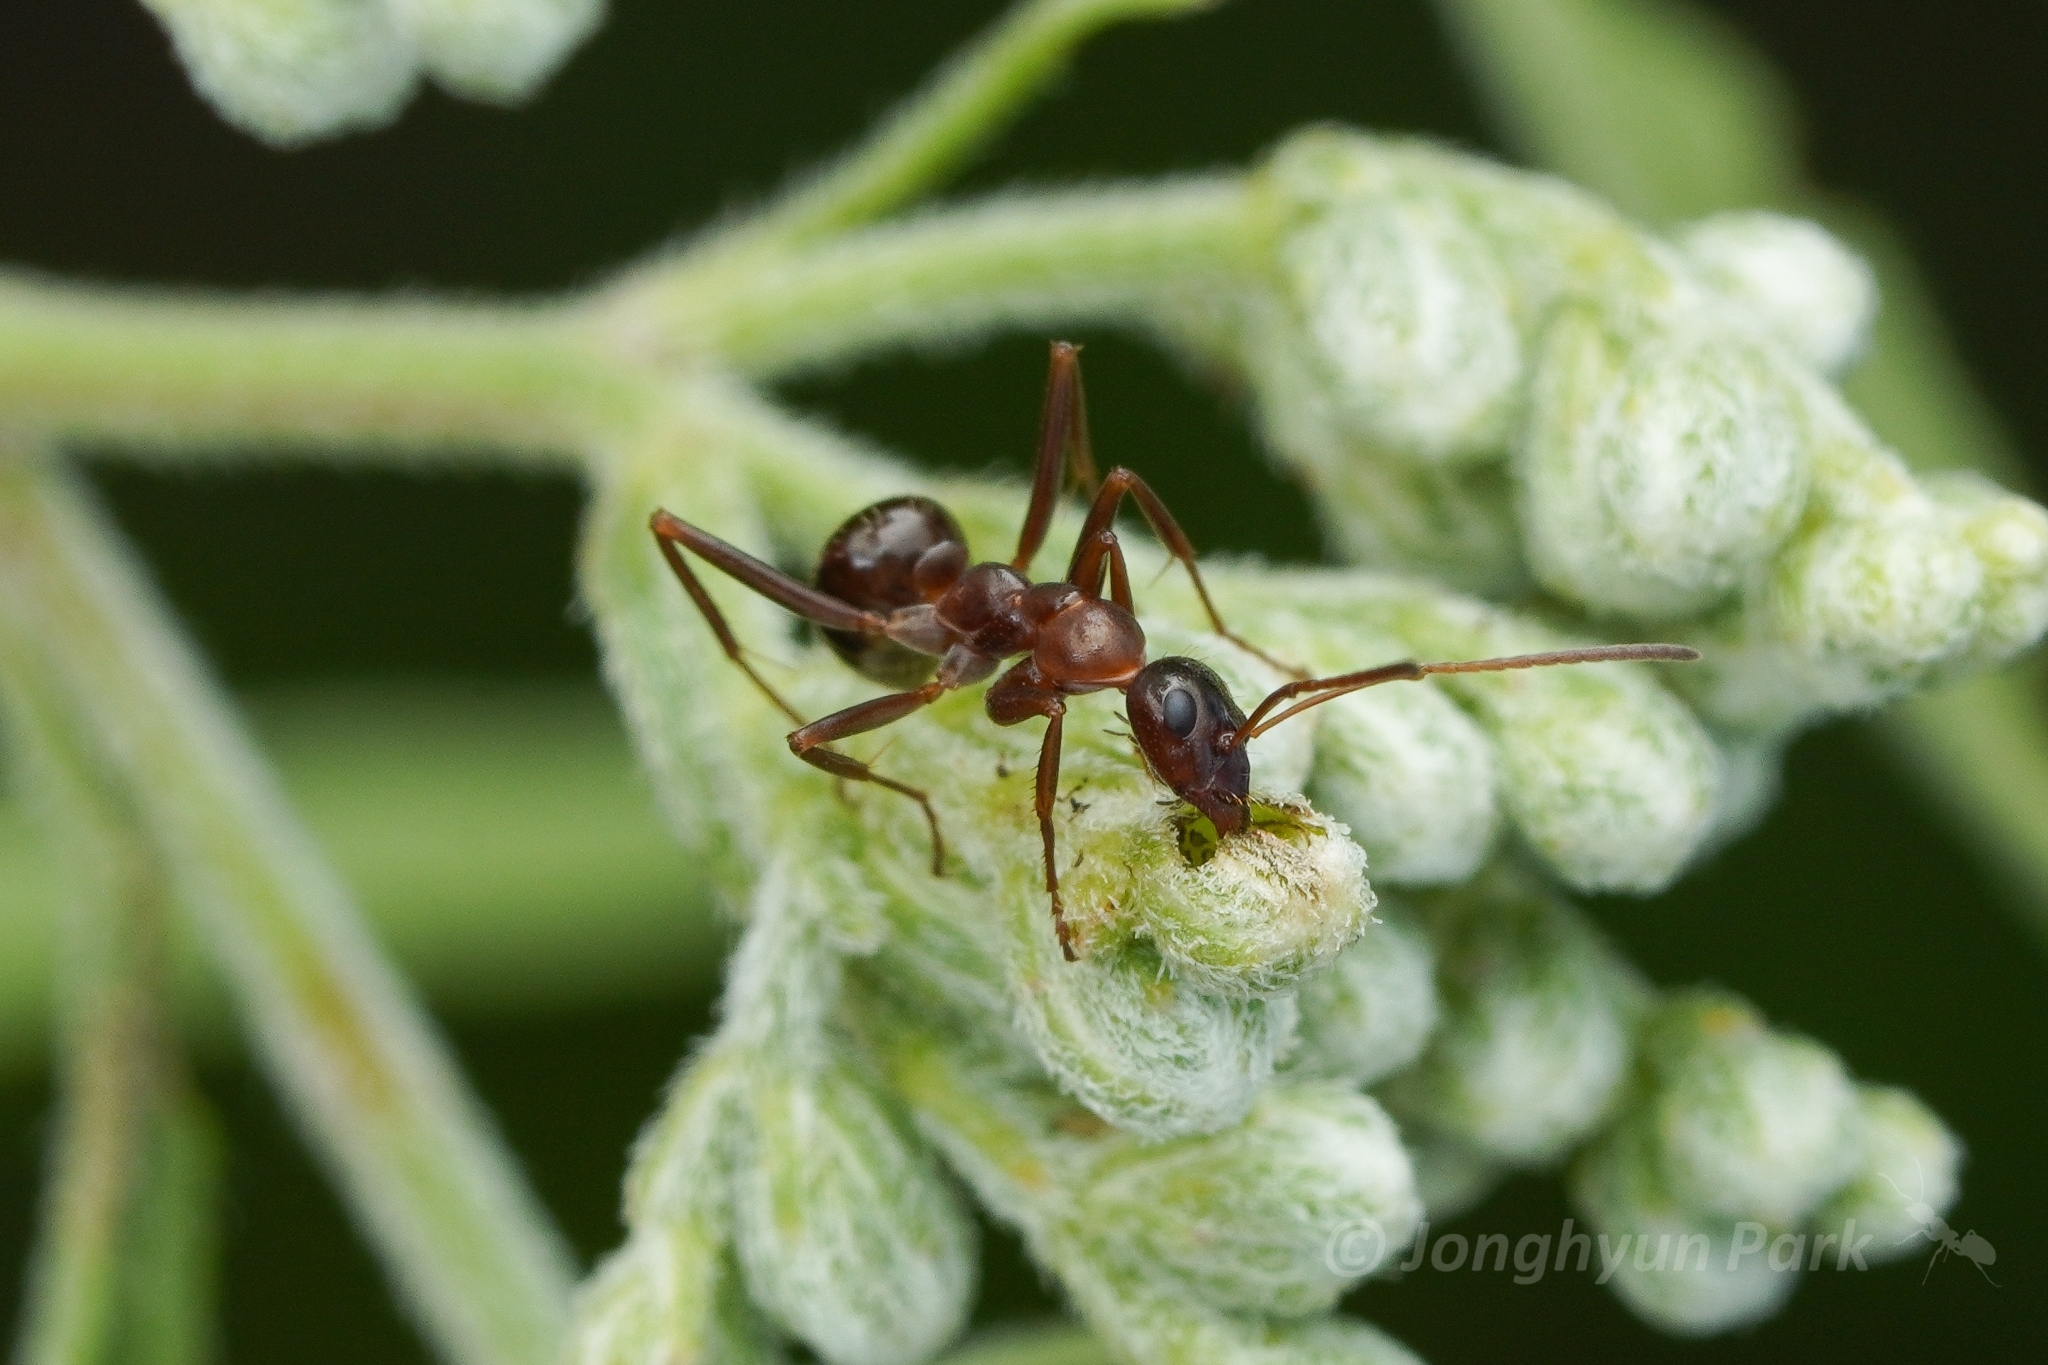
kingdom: Animalia
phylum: Arthropoda
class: Insecta
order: Hymenoptera
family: Formicidae
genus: Formica
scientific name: Formica pallidefulva
